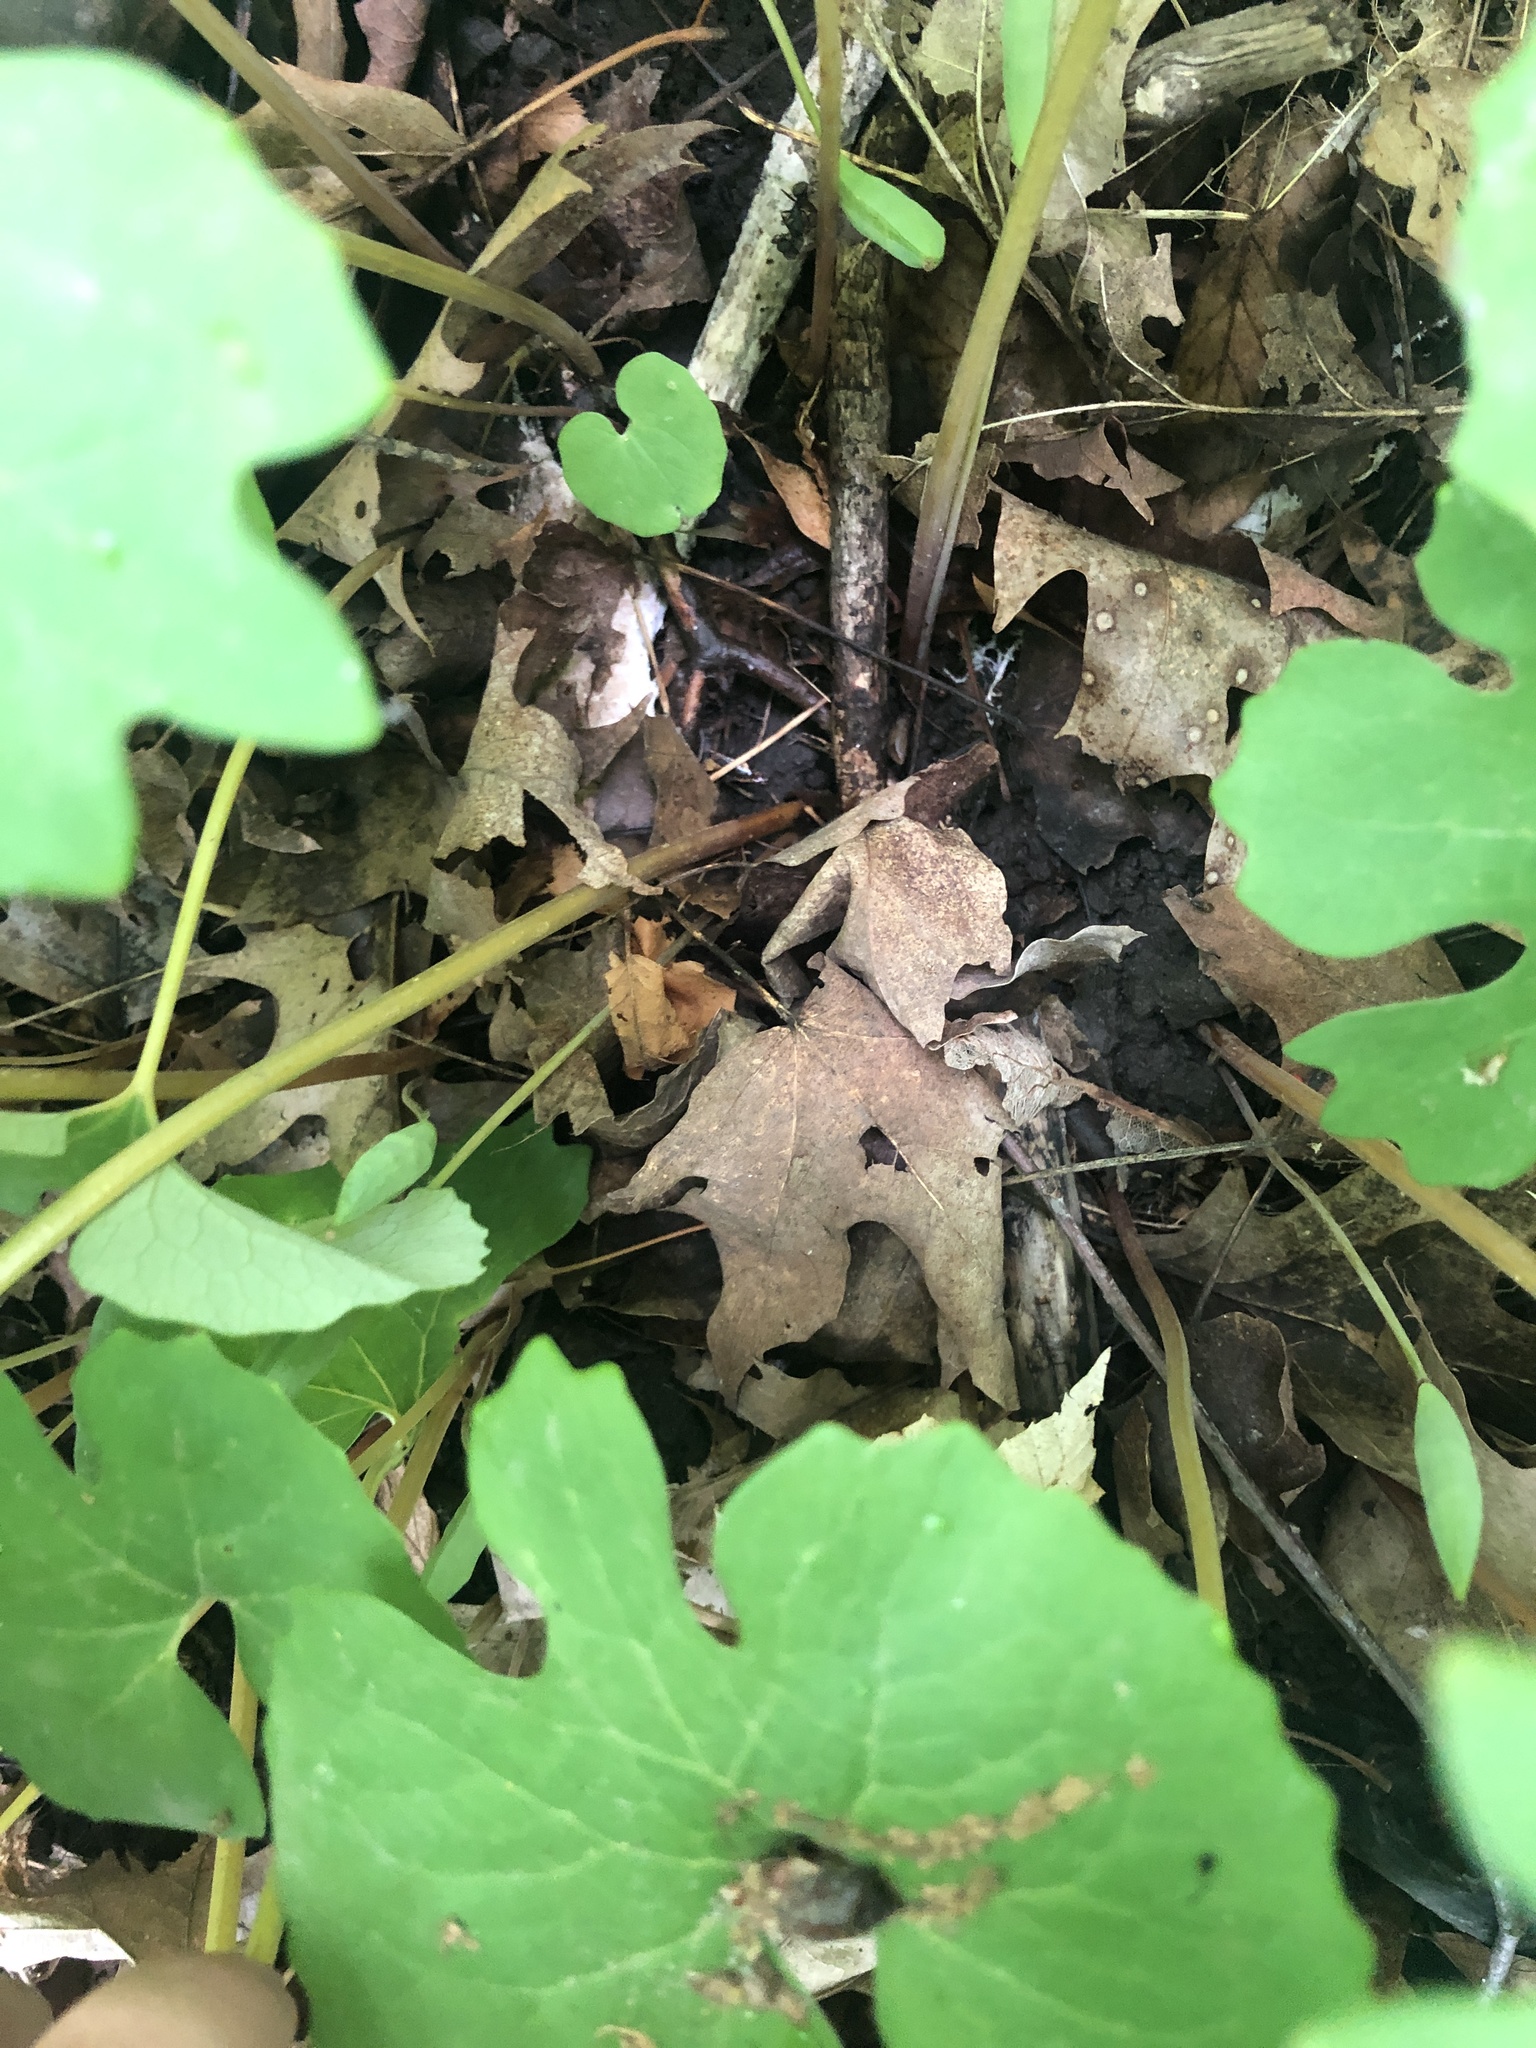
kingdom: Plantae
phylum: Tracheophyta
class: Magnoliopsida
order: Ranunculales
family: Papaveraceae
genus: Sanguinaria
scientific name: Sanguinaria canadensis
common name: Bloodroot
